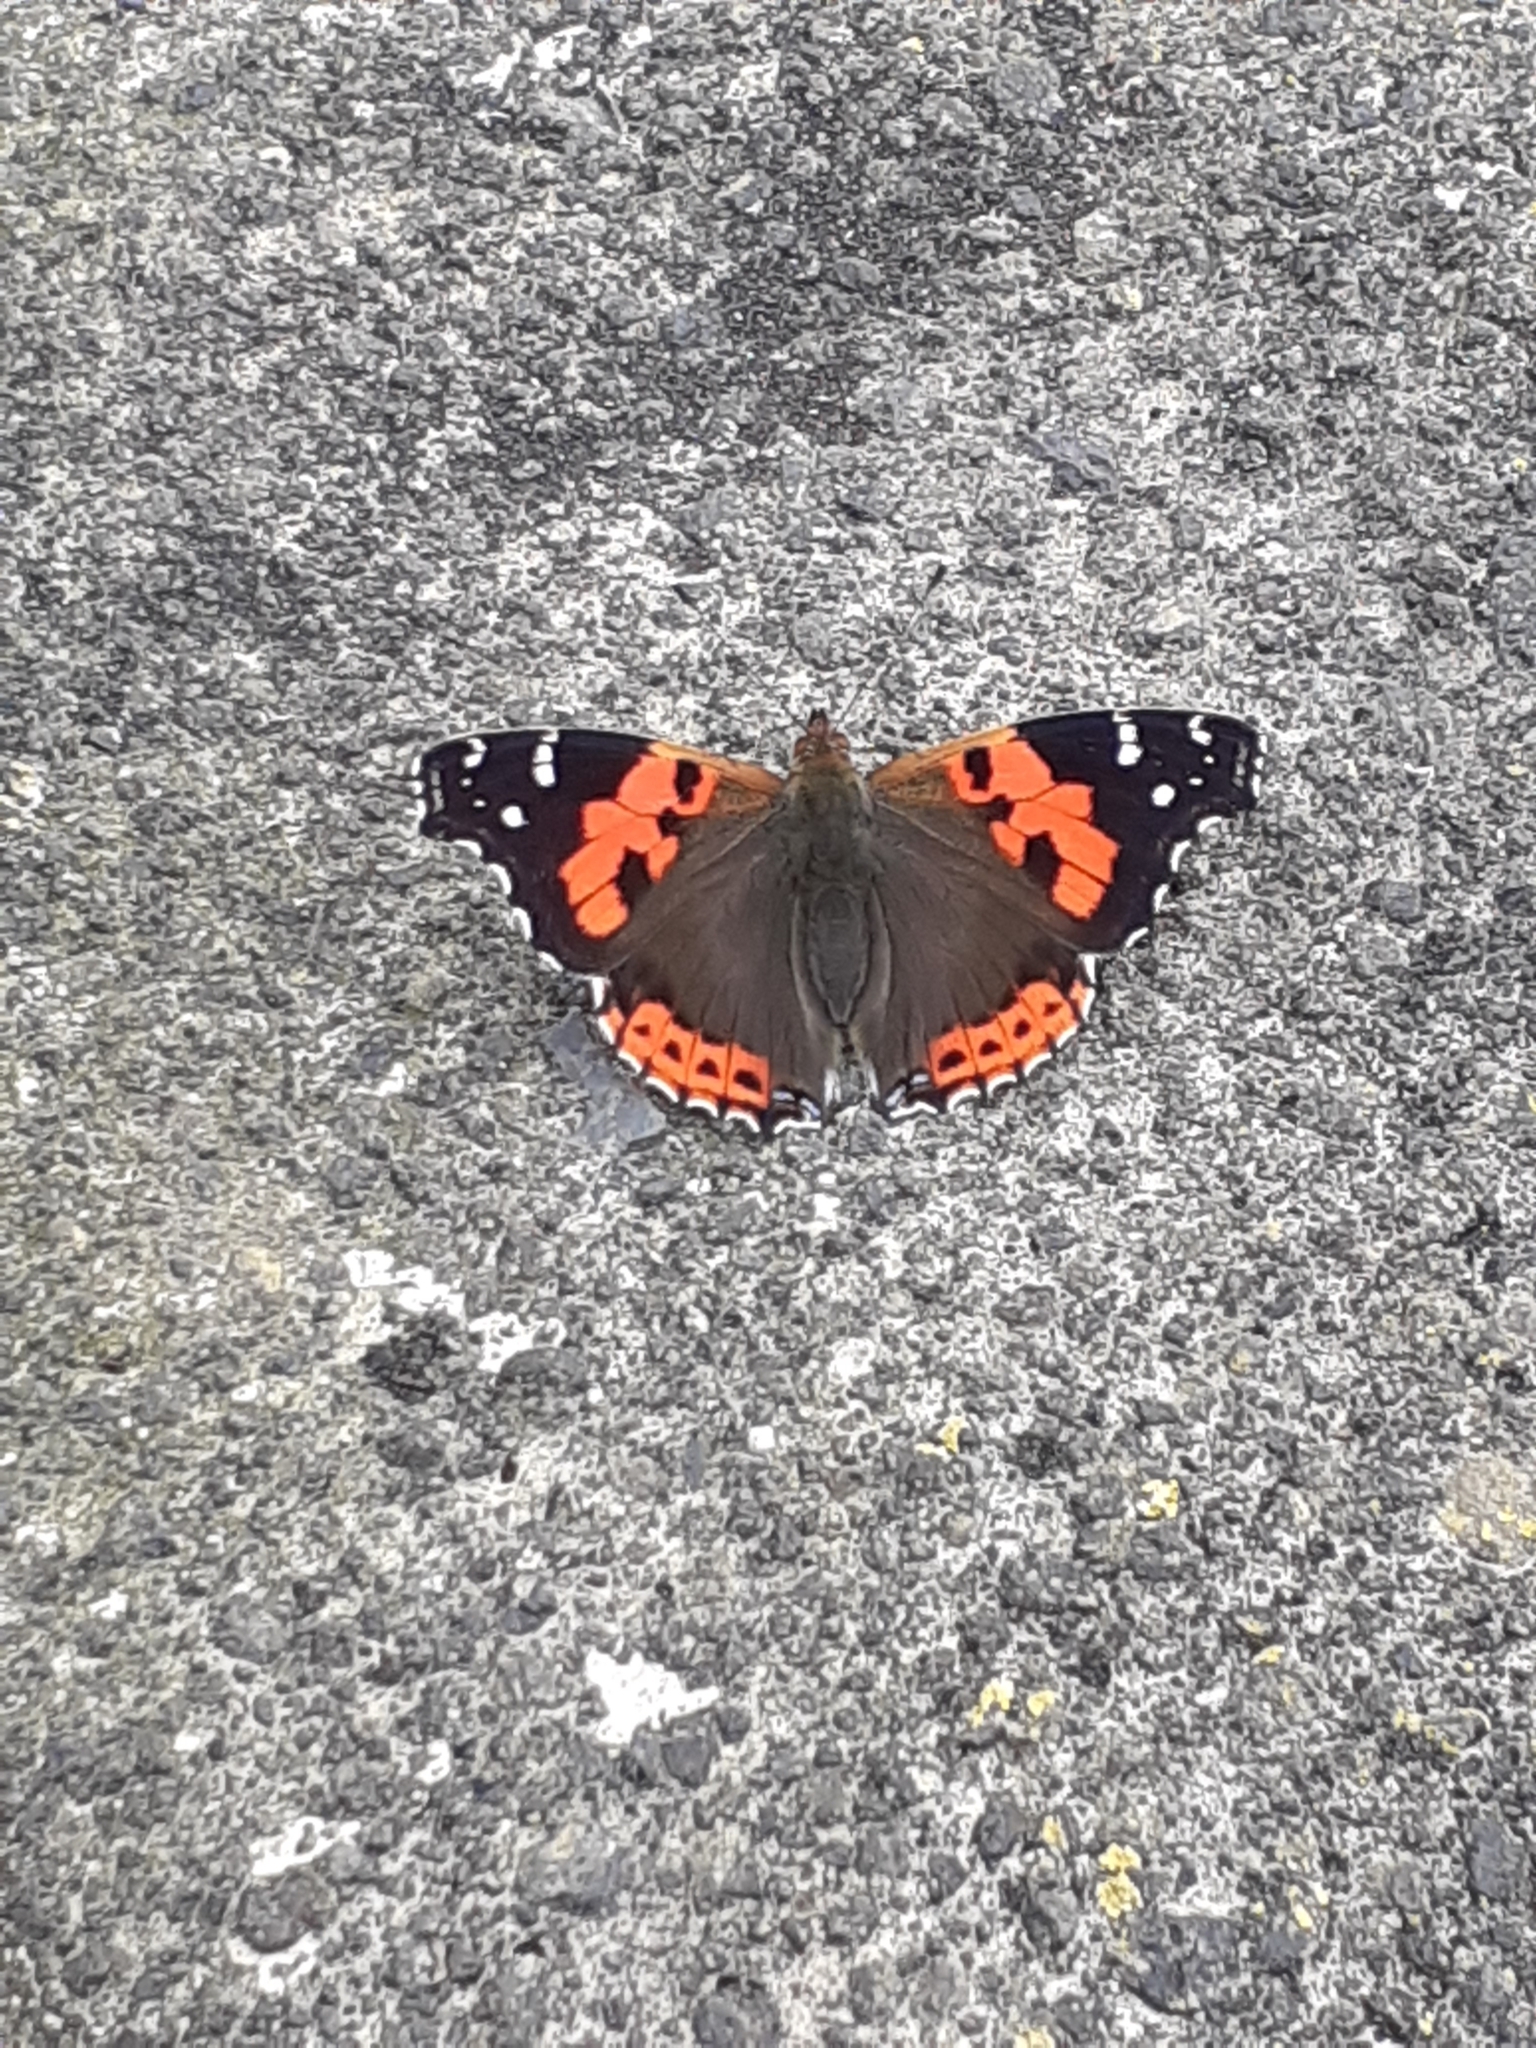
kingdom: Animalia
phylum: Arthropoda
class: Insecta
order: Lepidoptera
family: Nymphalidae
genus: Vanessa
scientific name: Vanessa vulcania
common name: Canary red admiral
